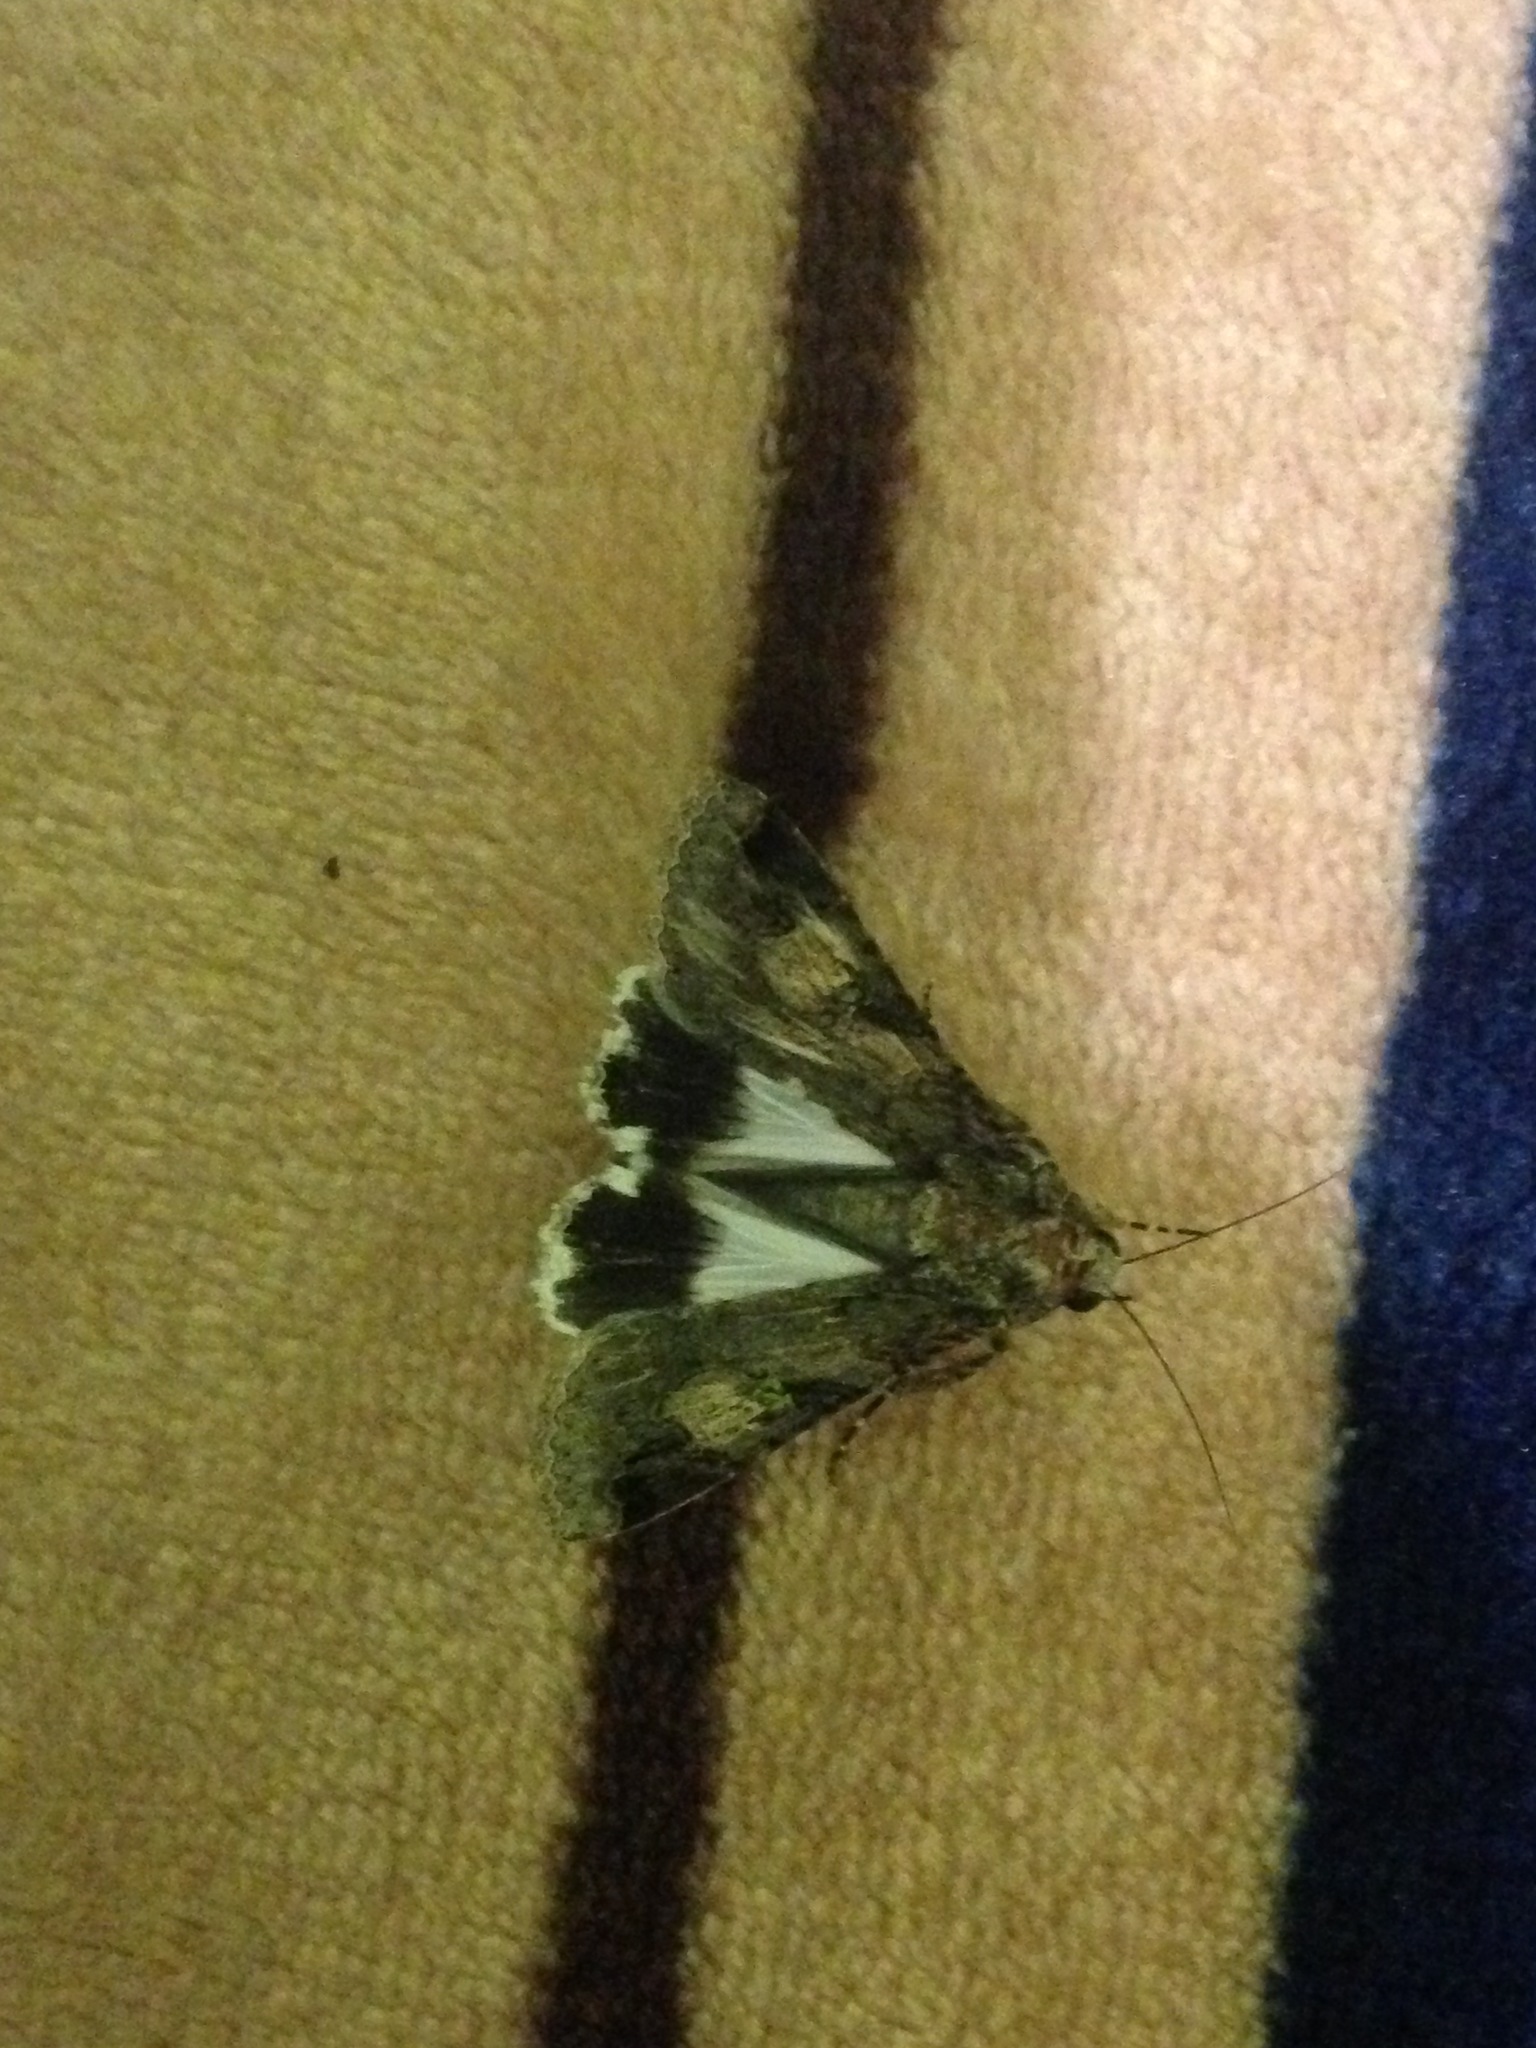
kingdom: Animalia
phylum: Arthropoda
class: Insecta
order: Lepidoptera
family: Erebidae
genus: Melipotis
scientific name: Melipotis famelica
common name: Famelica melipotis moth
